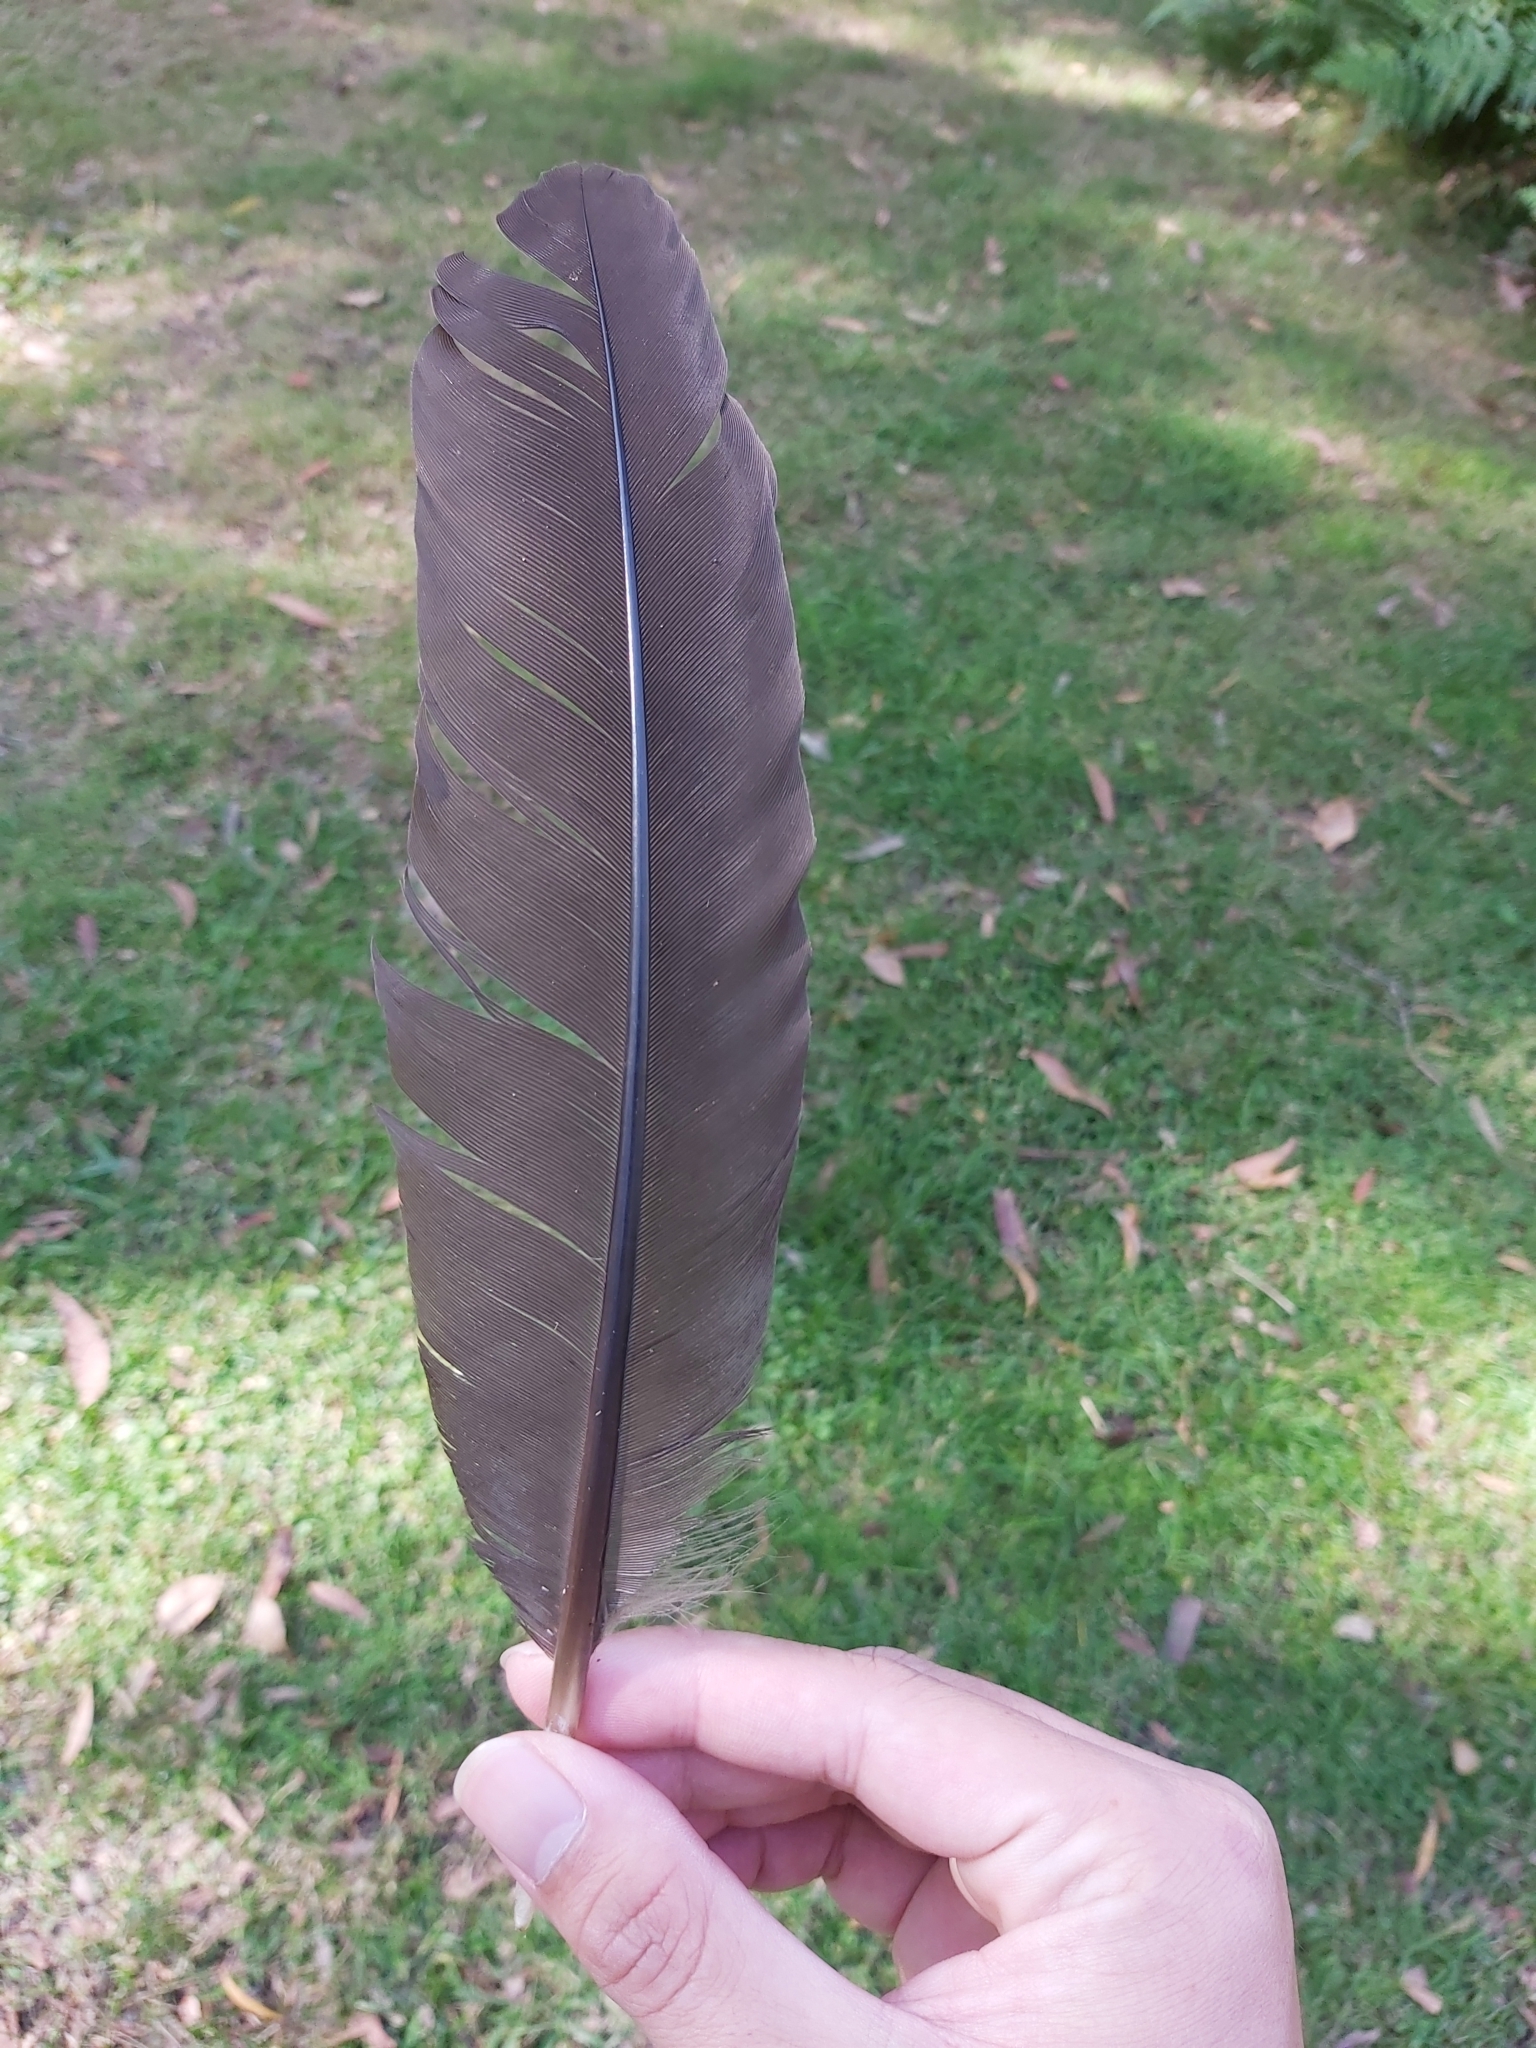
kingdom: Animalia
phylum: Chordata
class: Aves
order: Galliformes
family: Megapodiidae
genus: Alectura
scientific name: Alectura lathami
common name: Australian brushturkey
